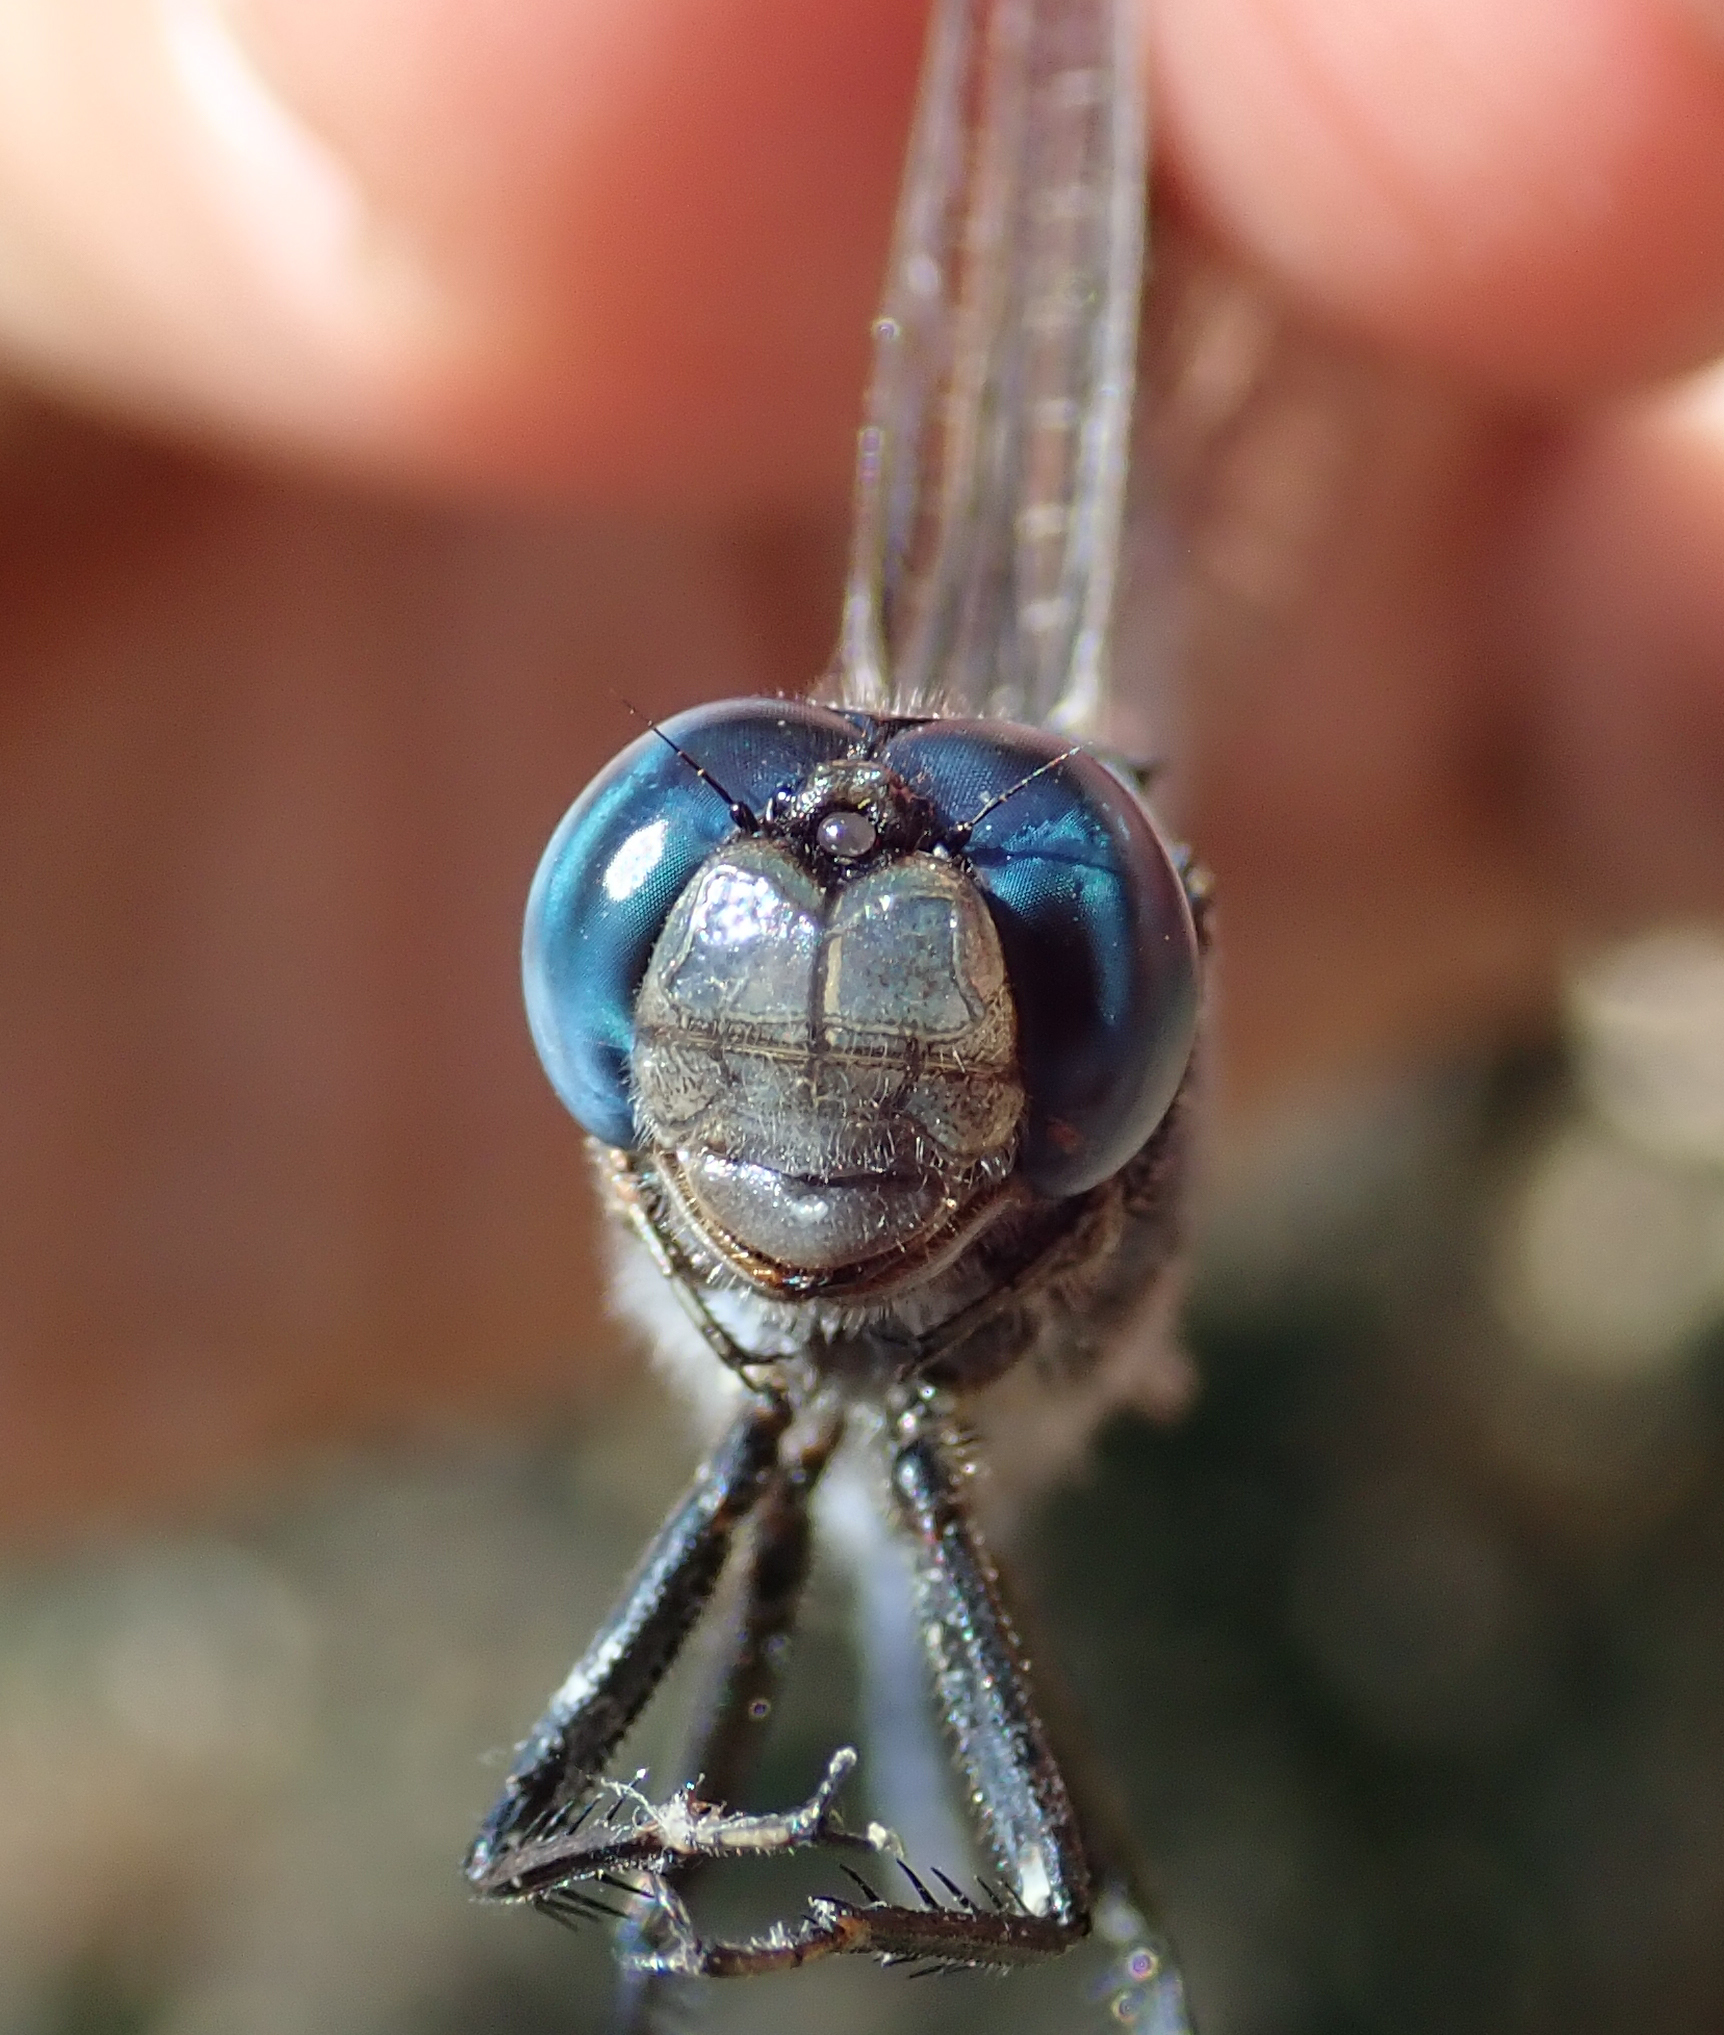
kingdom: Animalia
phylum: Arthropoda
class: Insecta
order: Odonata
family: Libellulidae
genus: Orthetrum
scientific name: Orthetrum trinacria
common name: Long skimmer
